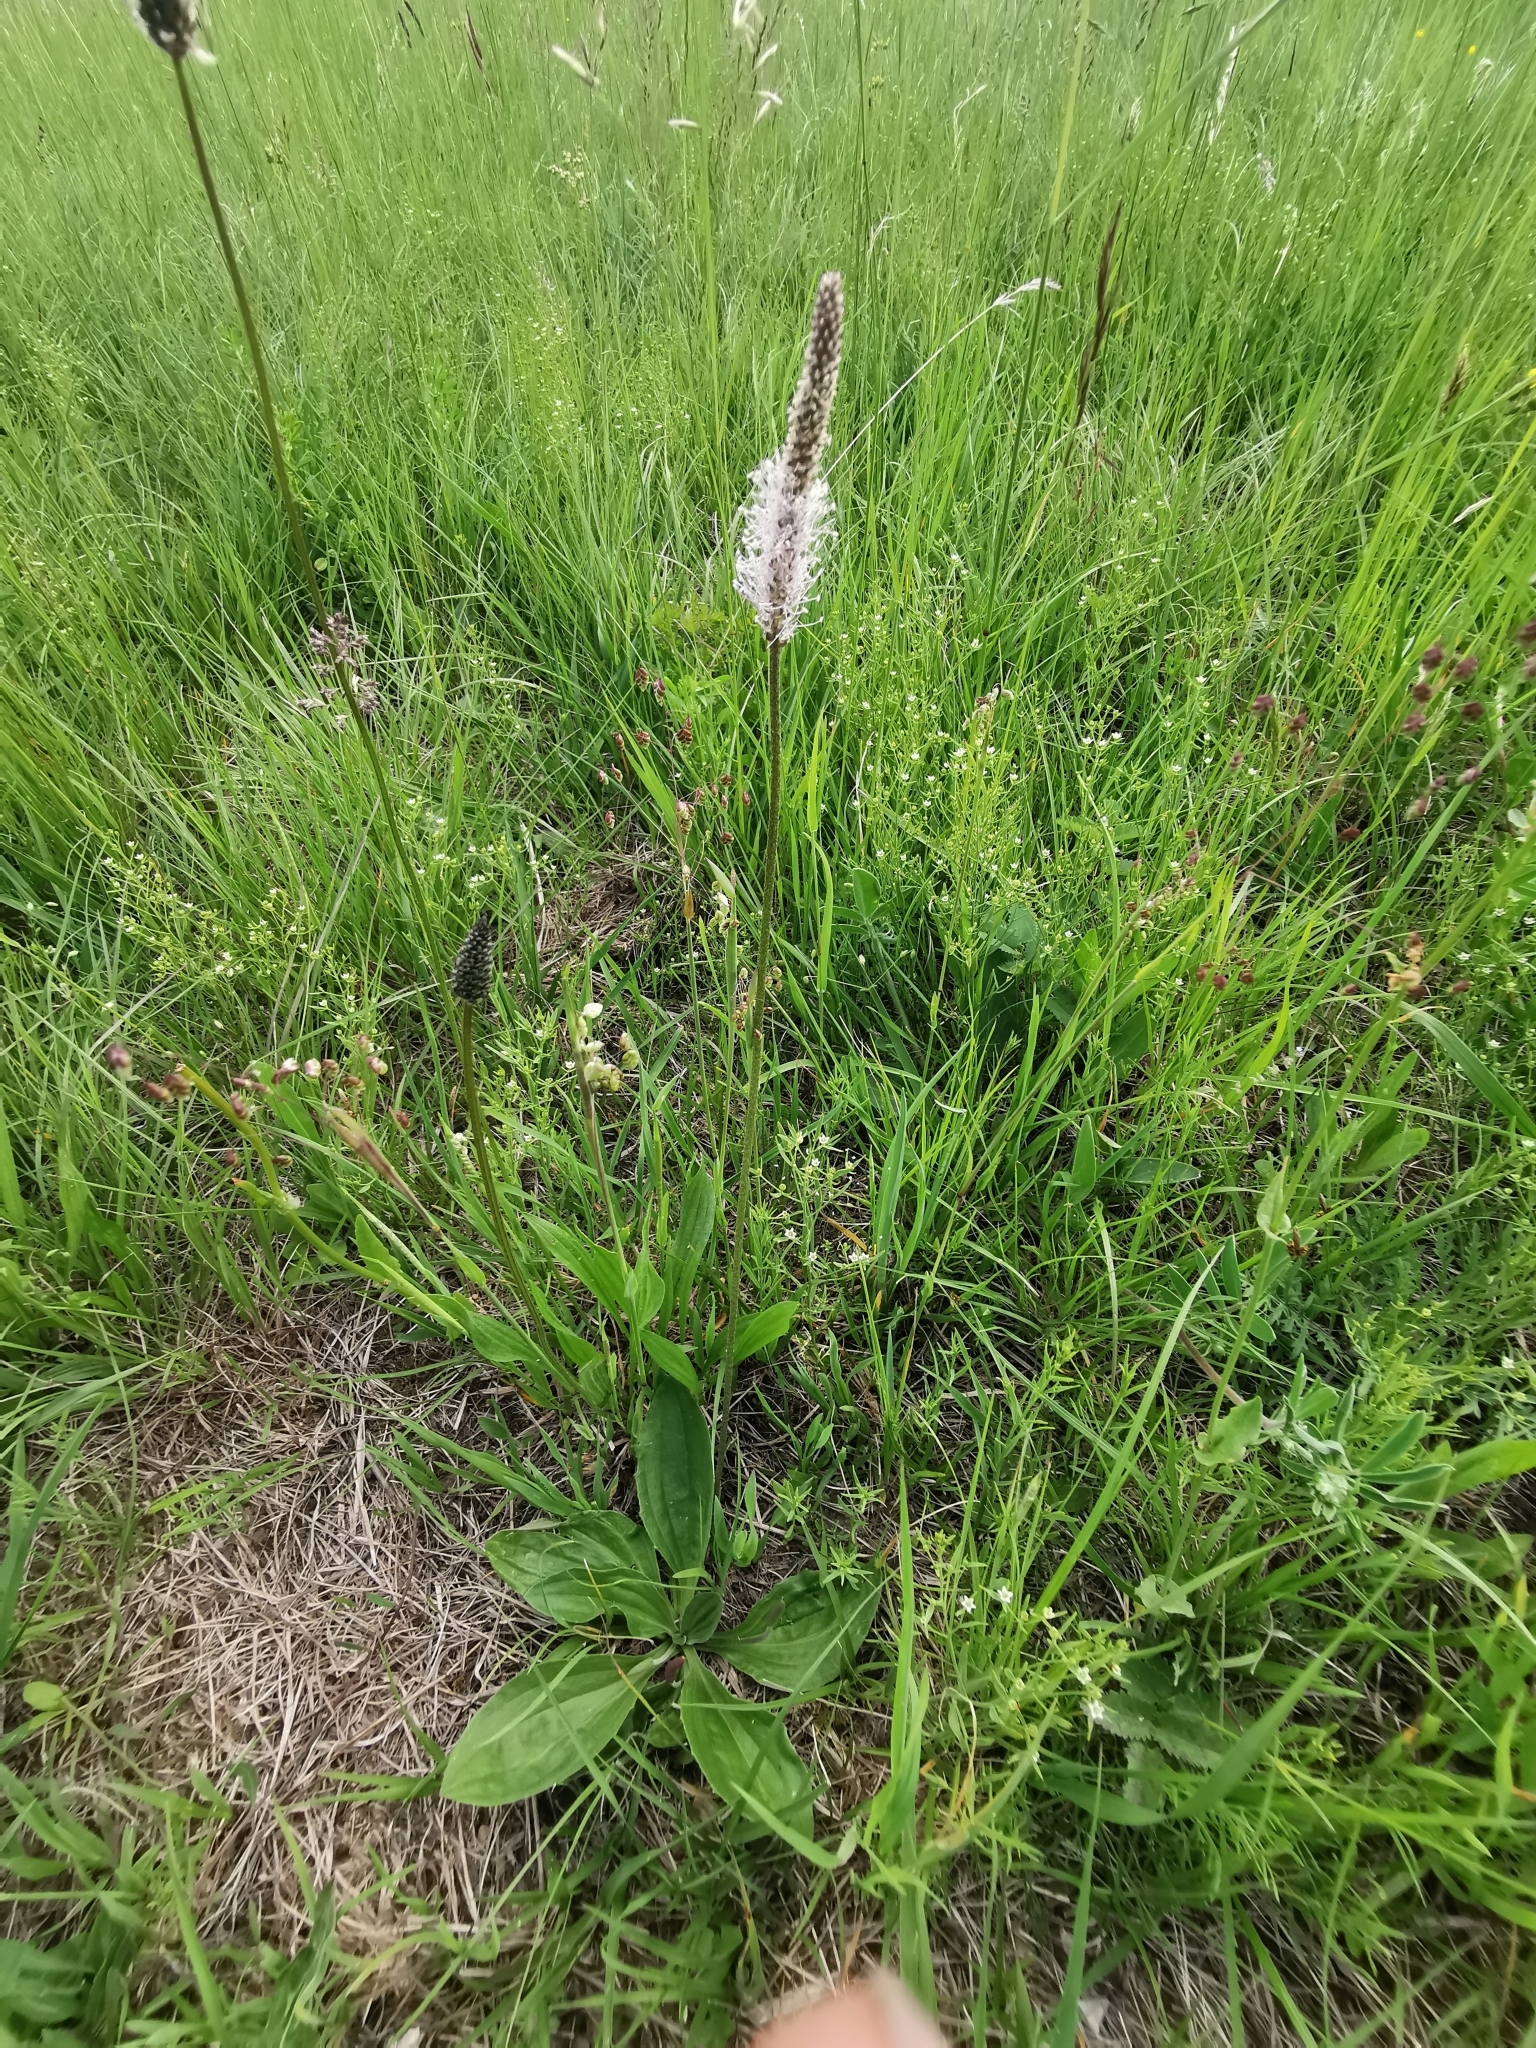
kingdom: Plantae
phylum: Tracheophyta
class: Magnoliopsida
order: Lamiales
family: Plantaginaceae
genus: Plantago
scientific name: Plantago media
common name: Hoary plantain
